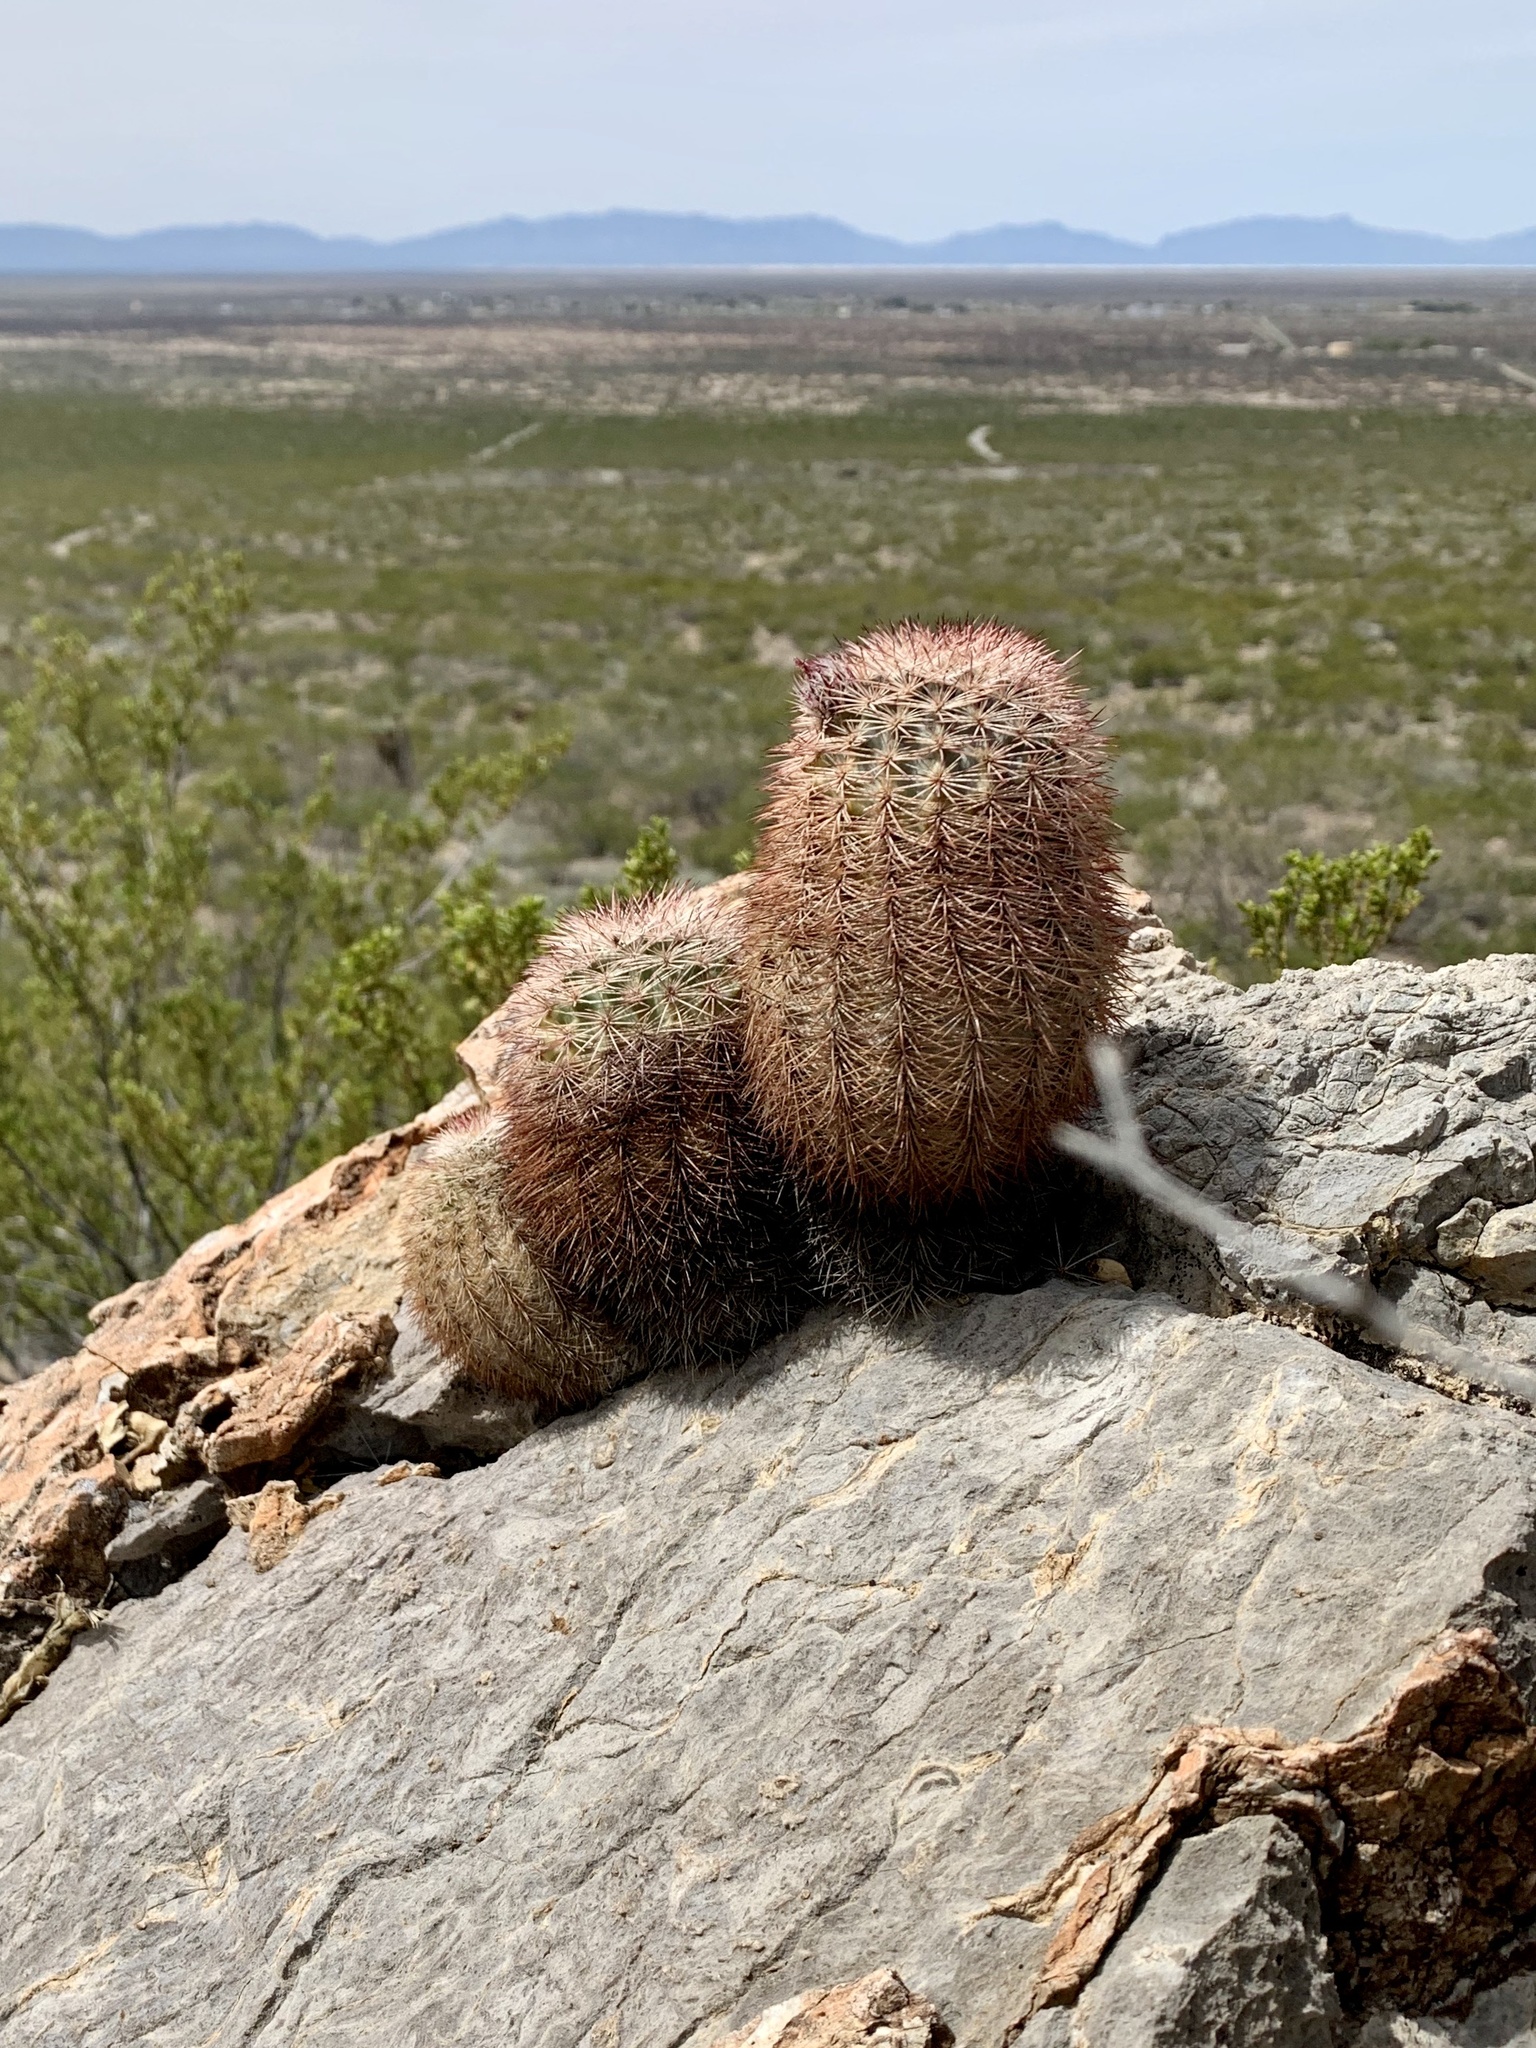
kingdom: Plantae
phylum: Tracheophyta
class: Magnoliopsida
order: Caryophyllales
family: Cactaceae
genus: Echinocereus
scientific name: Echinocereus dasyacanthus
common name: Spiny hedgehog cactus
